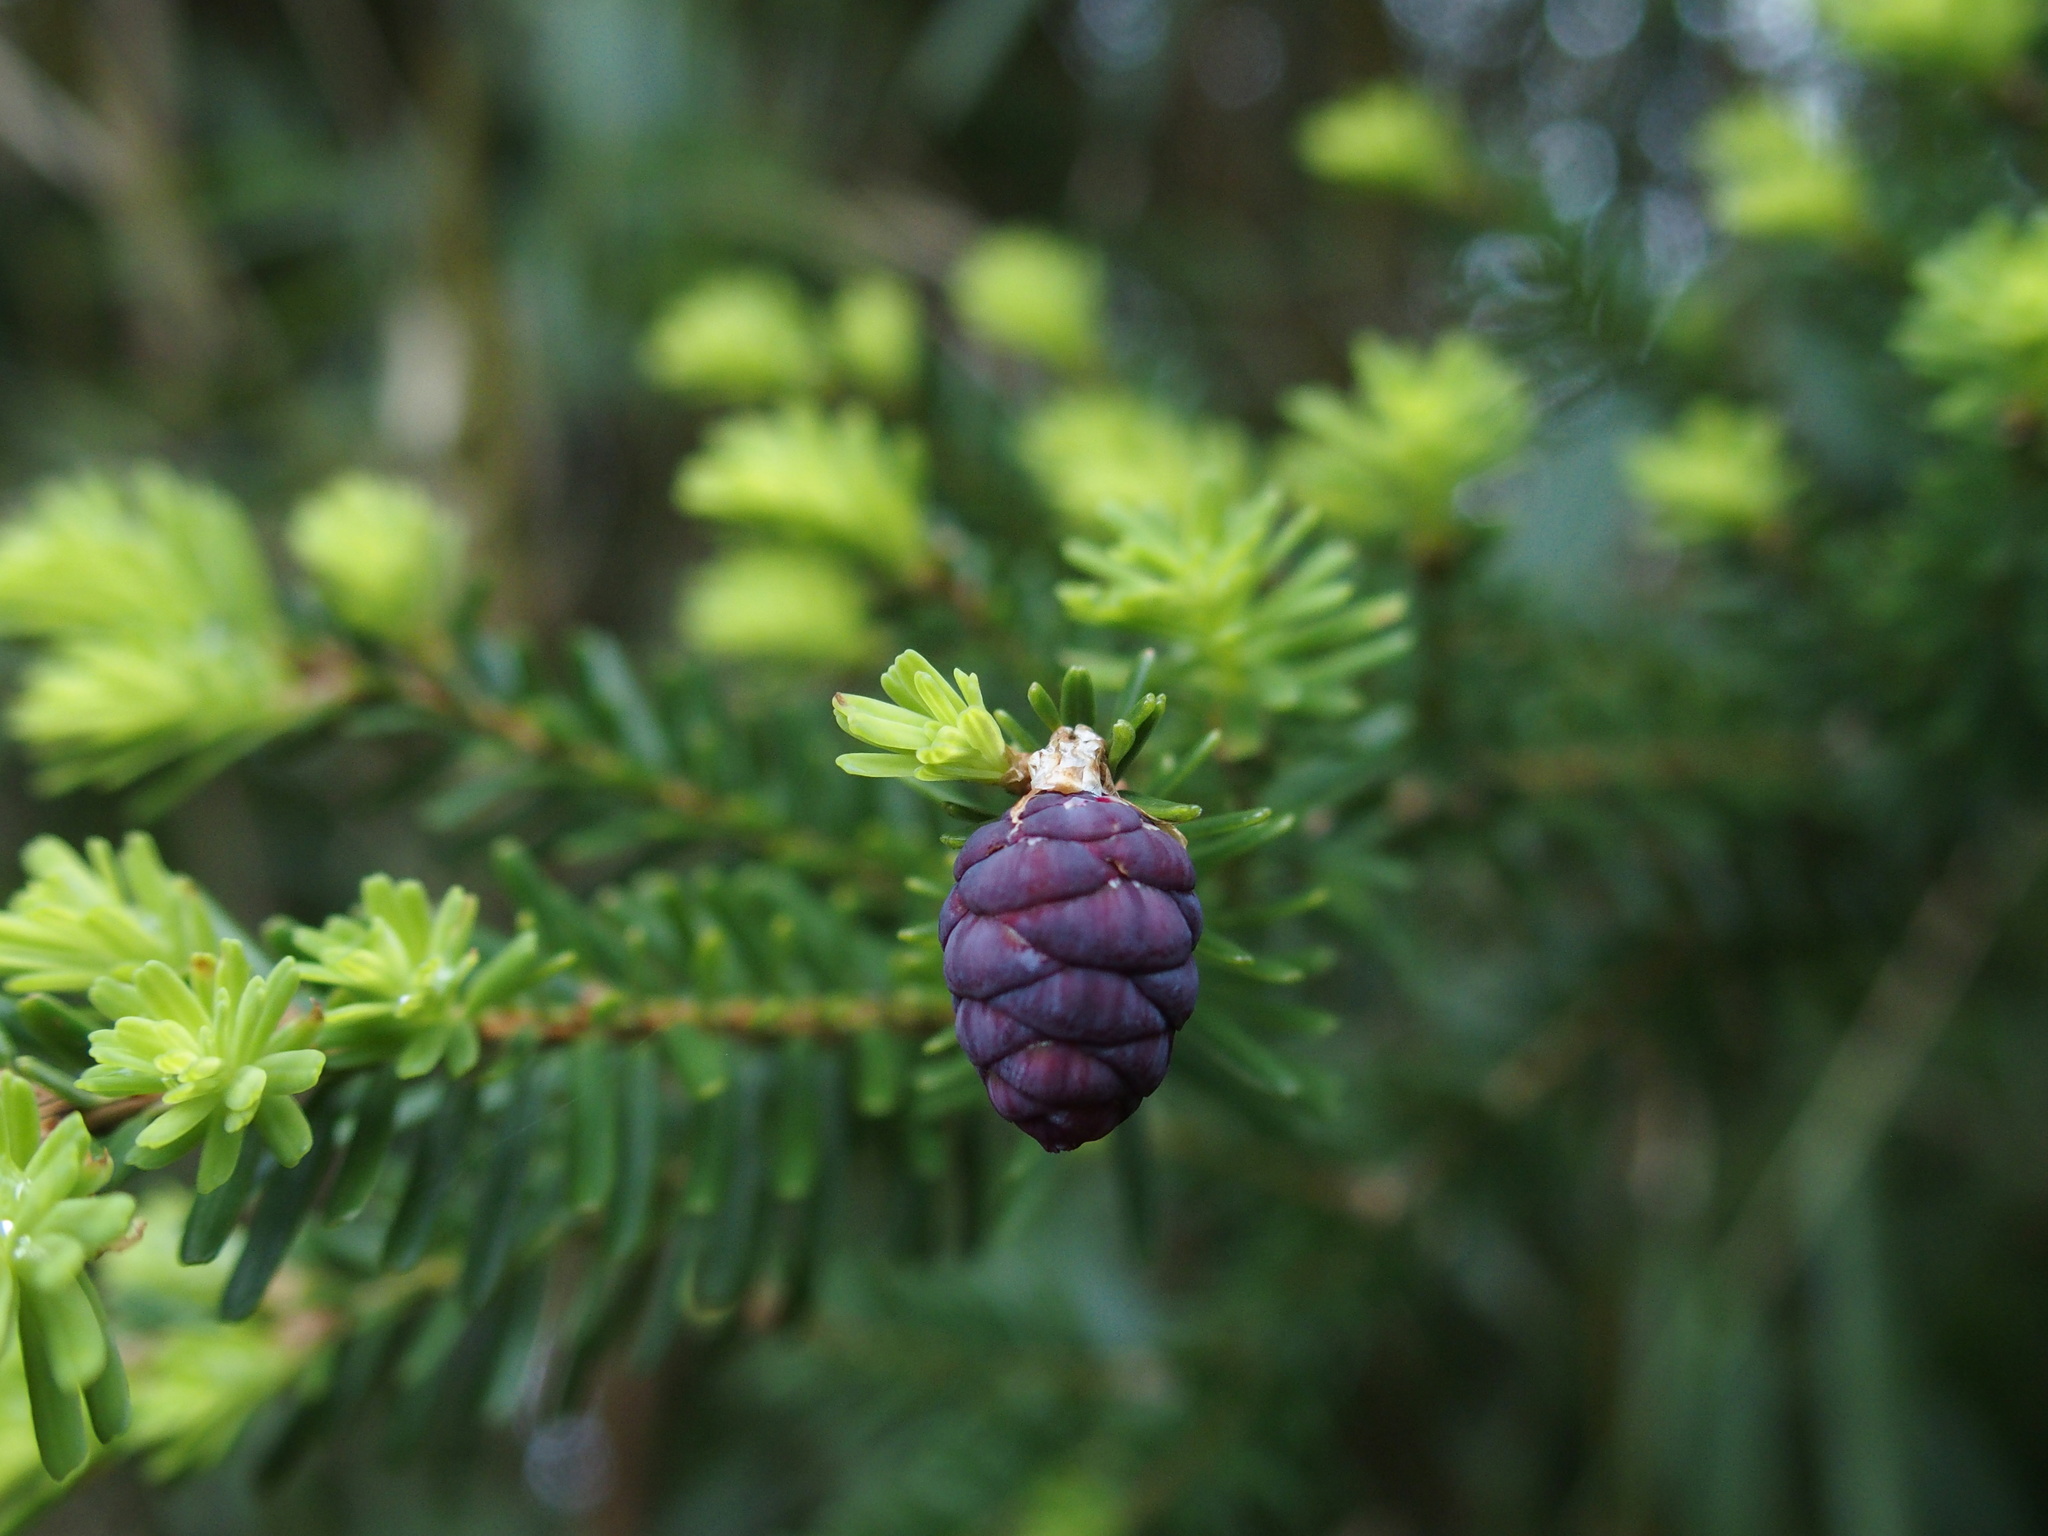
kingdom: Plantae
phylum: Tracheophyta
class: Pinopsida
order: Pinales
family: Pinaceae
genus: Tsuga
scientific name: Tsuga chinensis
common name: Chinese hemlock
